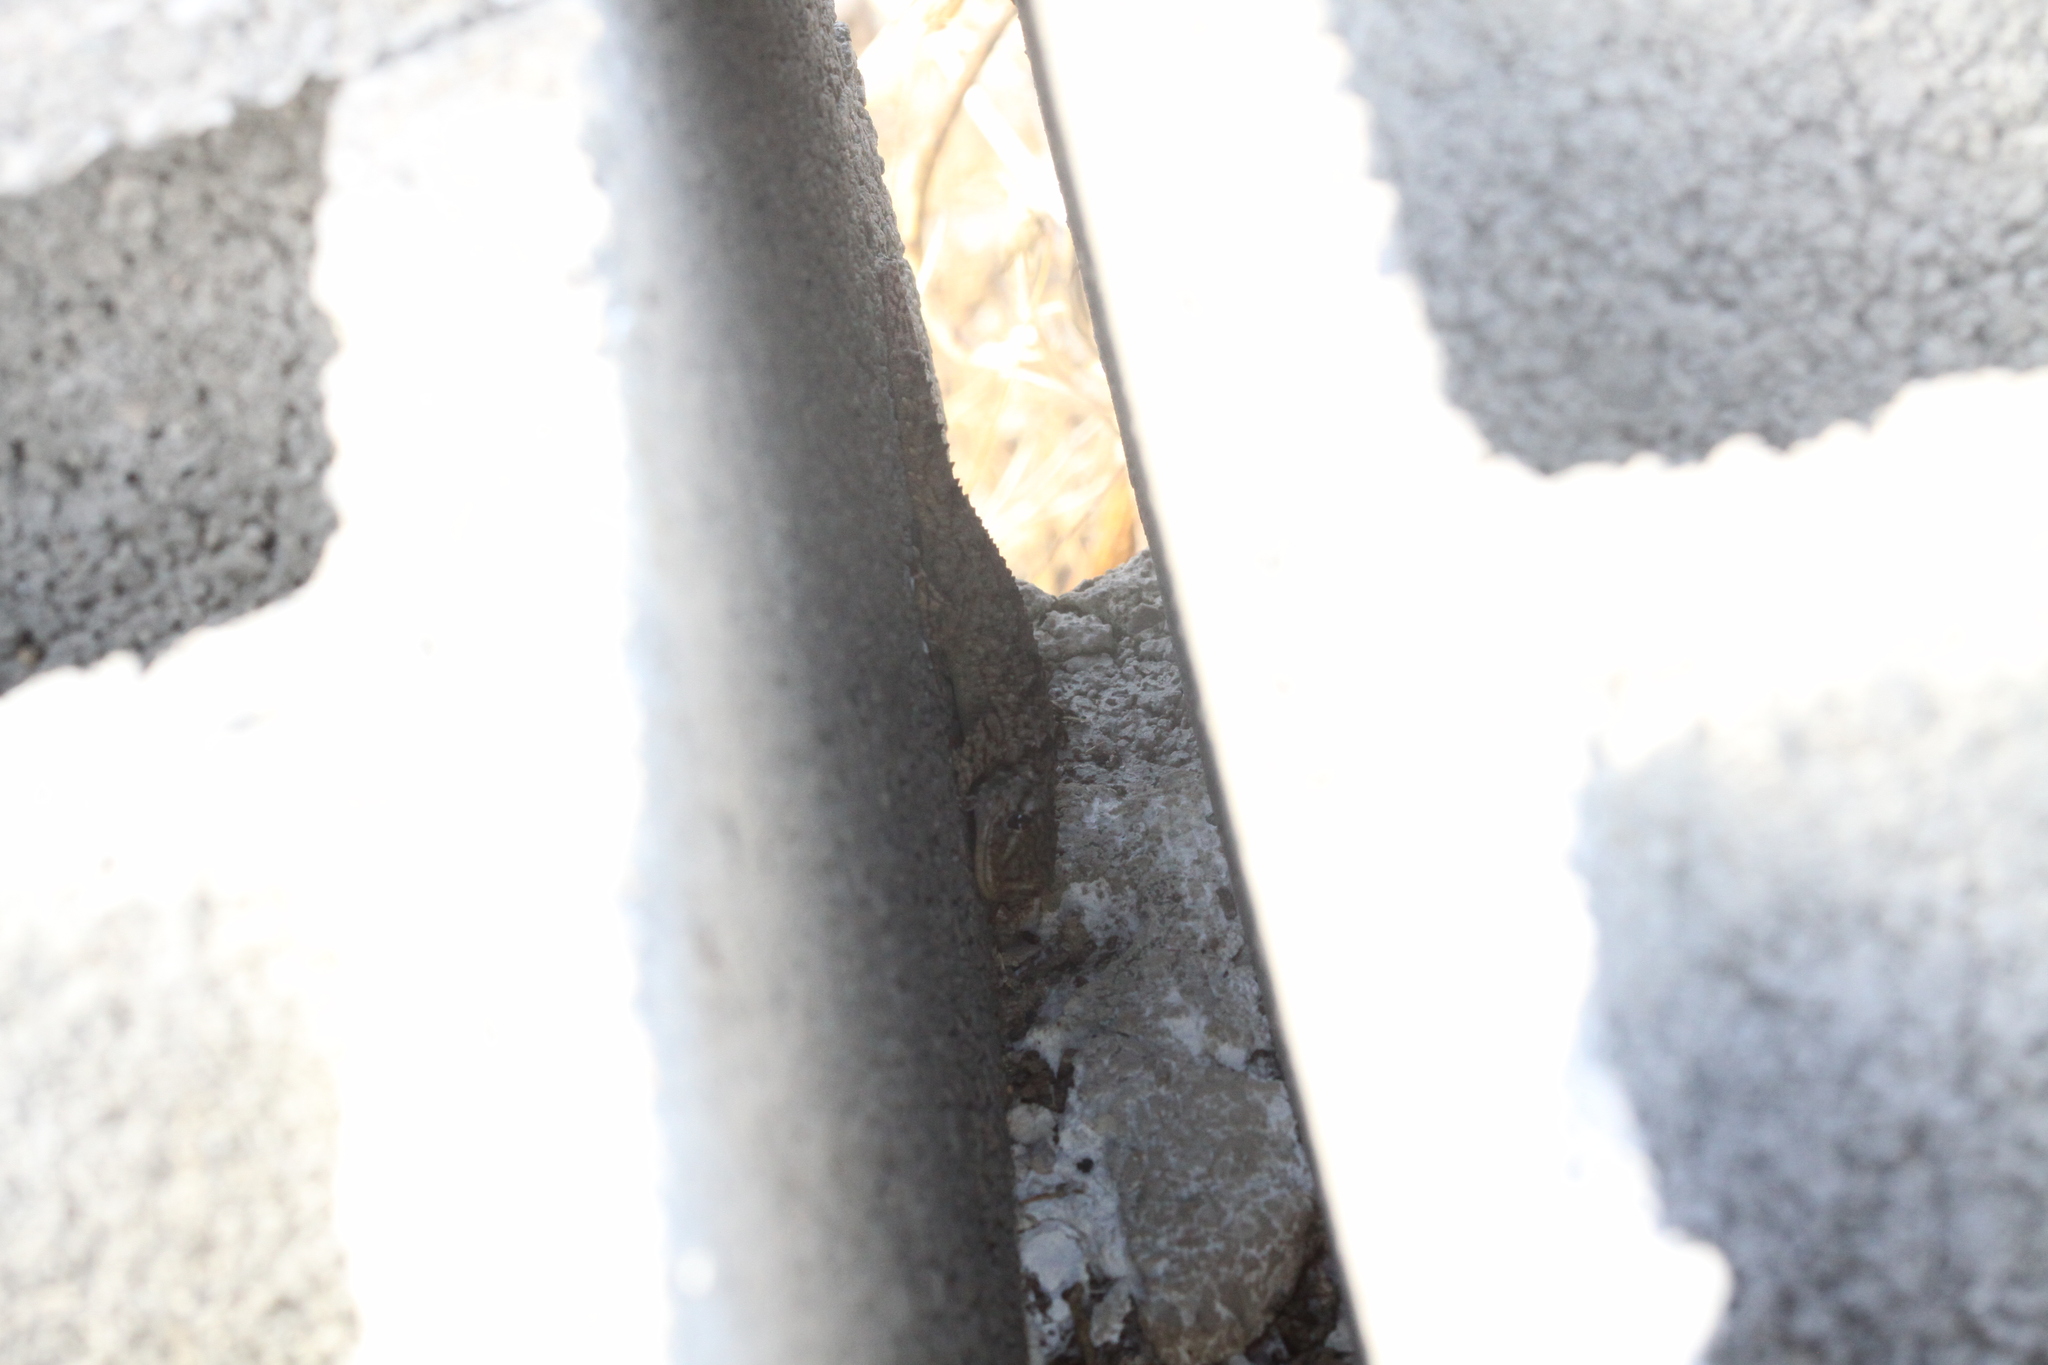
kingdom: Animalia
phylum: Chordata
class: Squamata
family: Phyllodactylidae
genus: Tarentola
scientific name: Tarentola mauritanica
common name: Moorish gecko
